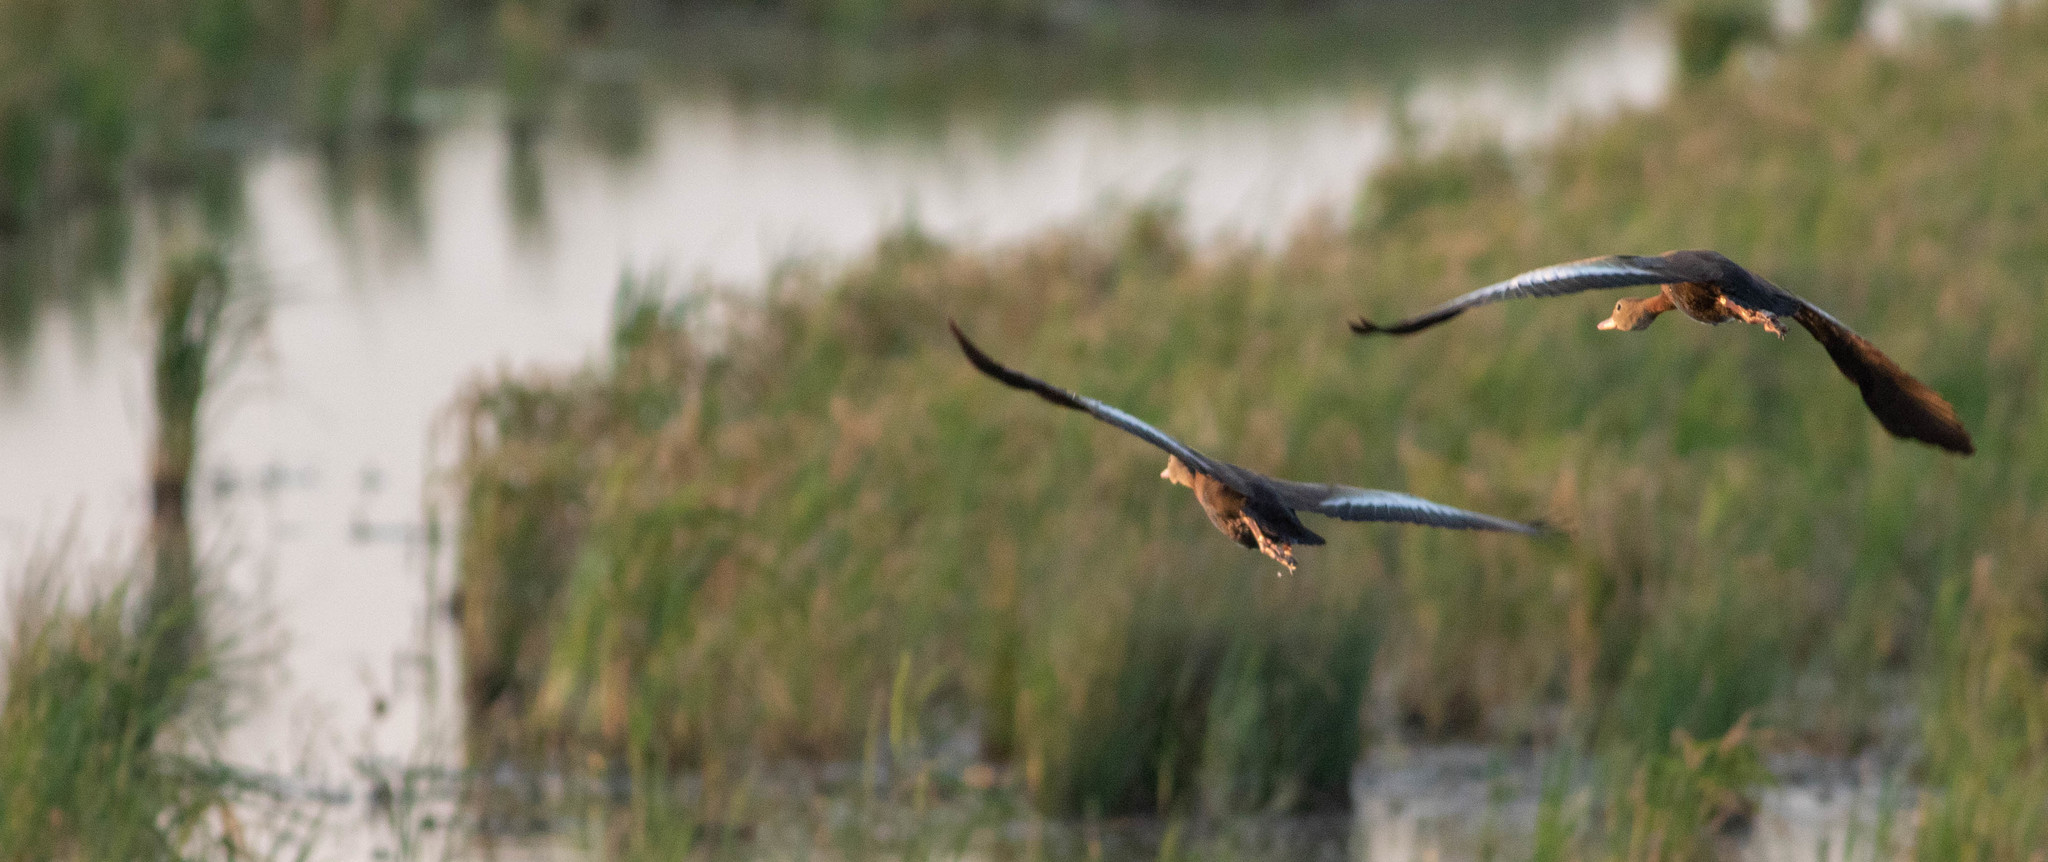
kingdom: Animalia
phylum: Chordata
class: Aves
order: Anseriformes
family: Anatidae
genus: Dendrocygna
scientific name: Dendrocygna autumnalis
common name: Black-bellied whistling duck
